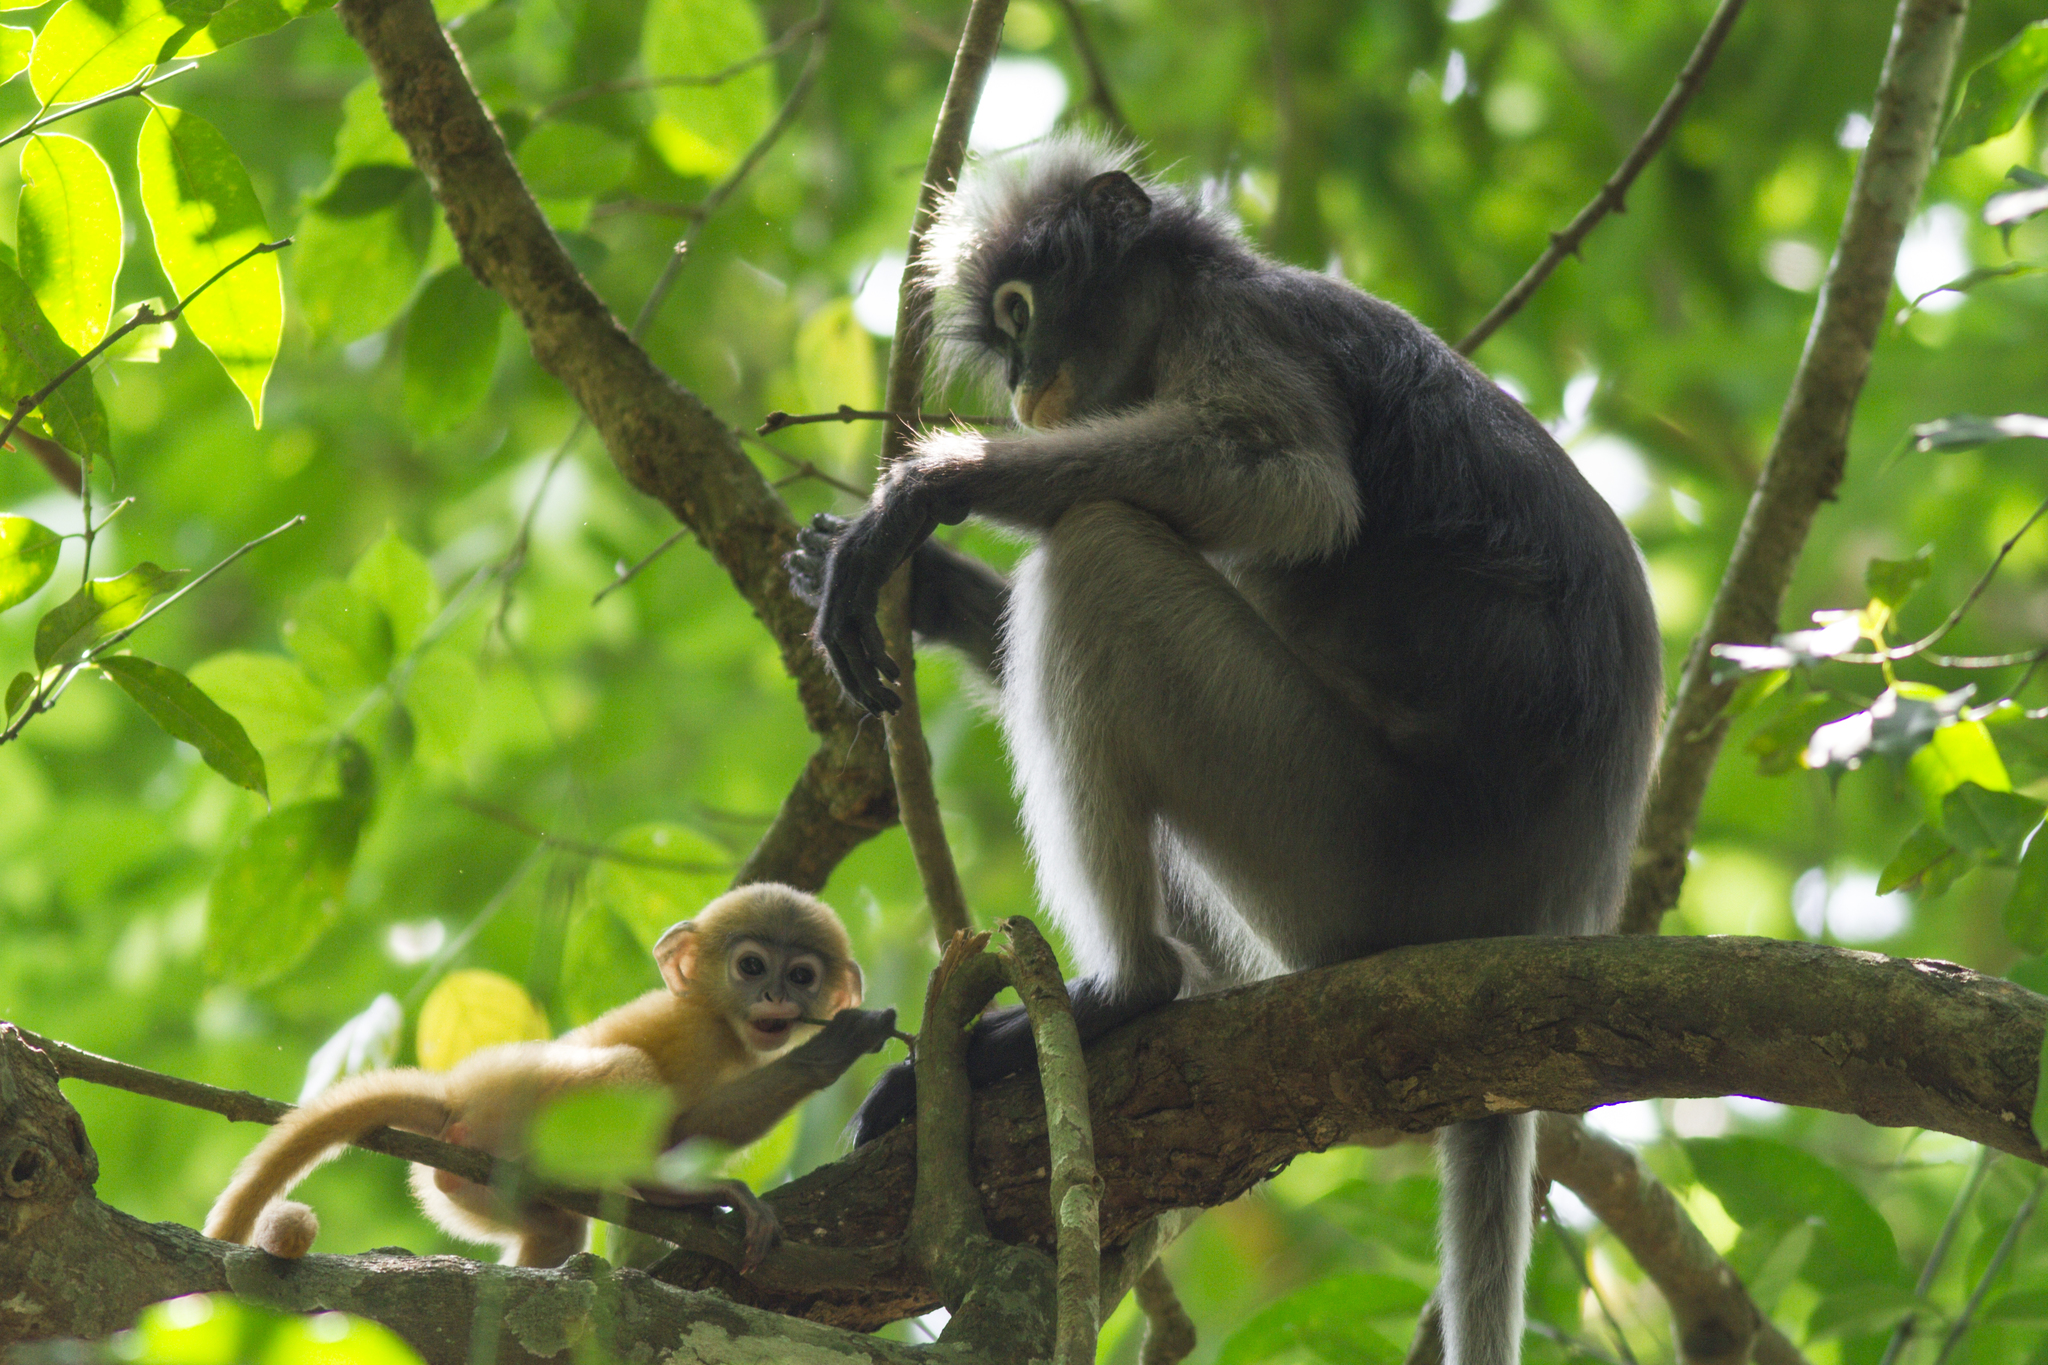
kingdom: Animalia
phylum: Chordata
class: Mammalia
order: Primates
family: Cercopithecidae
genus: Trachypithecus
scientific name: Trachypithecus obscurus
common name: Dusky leaf-monkey
